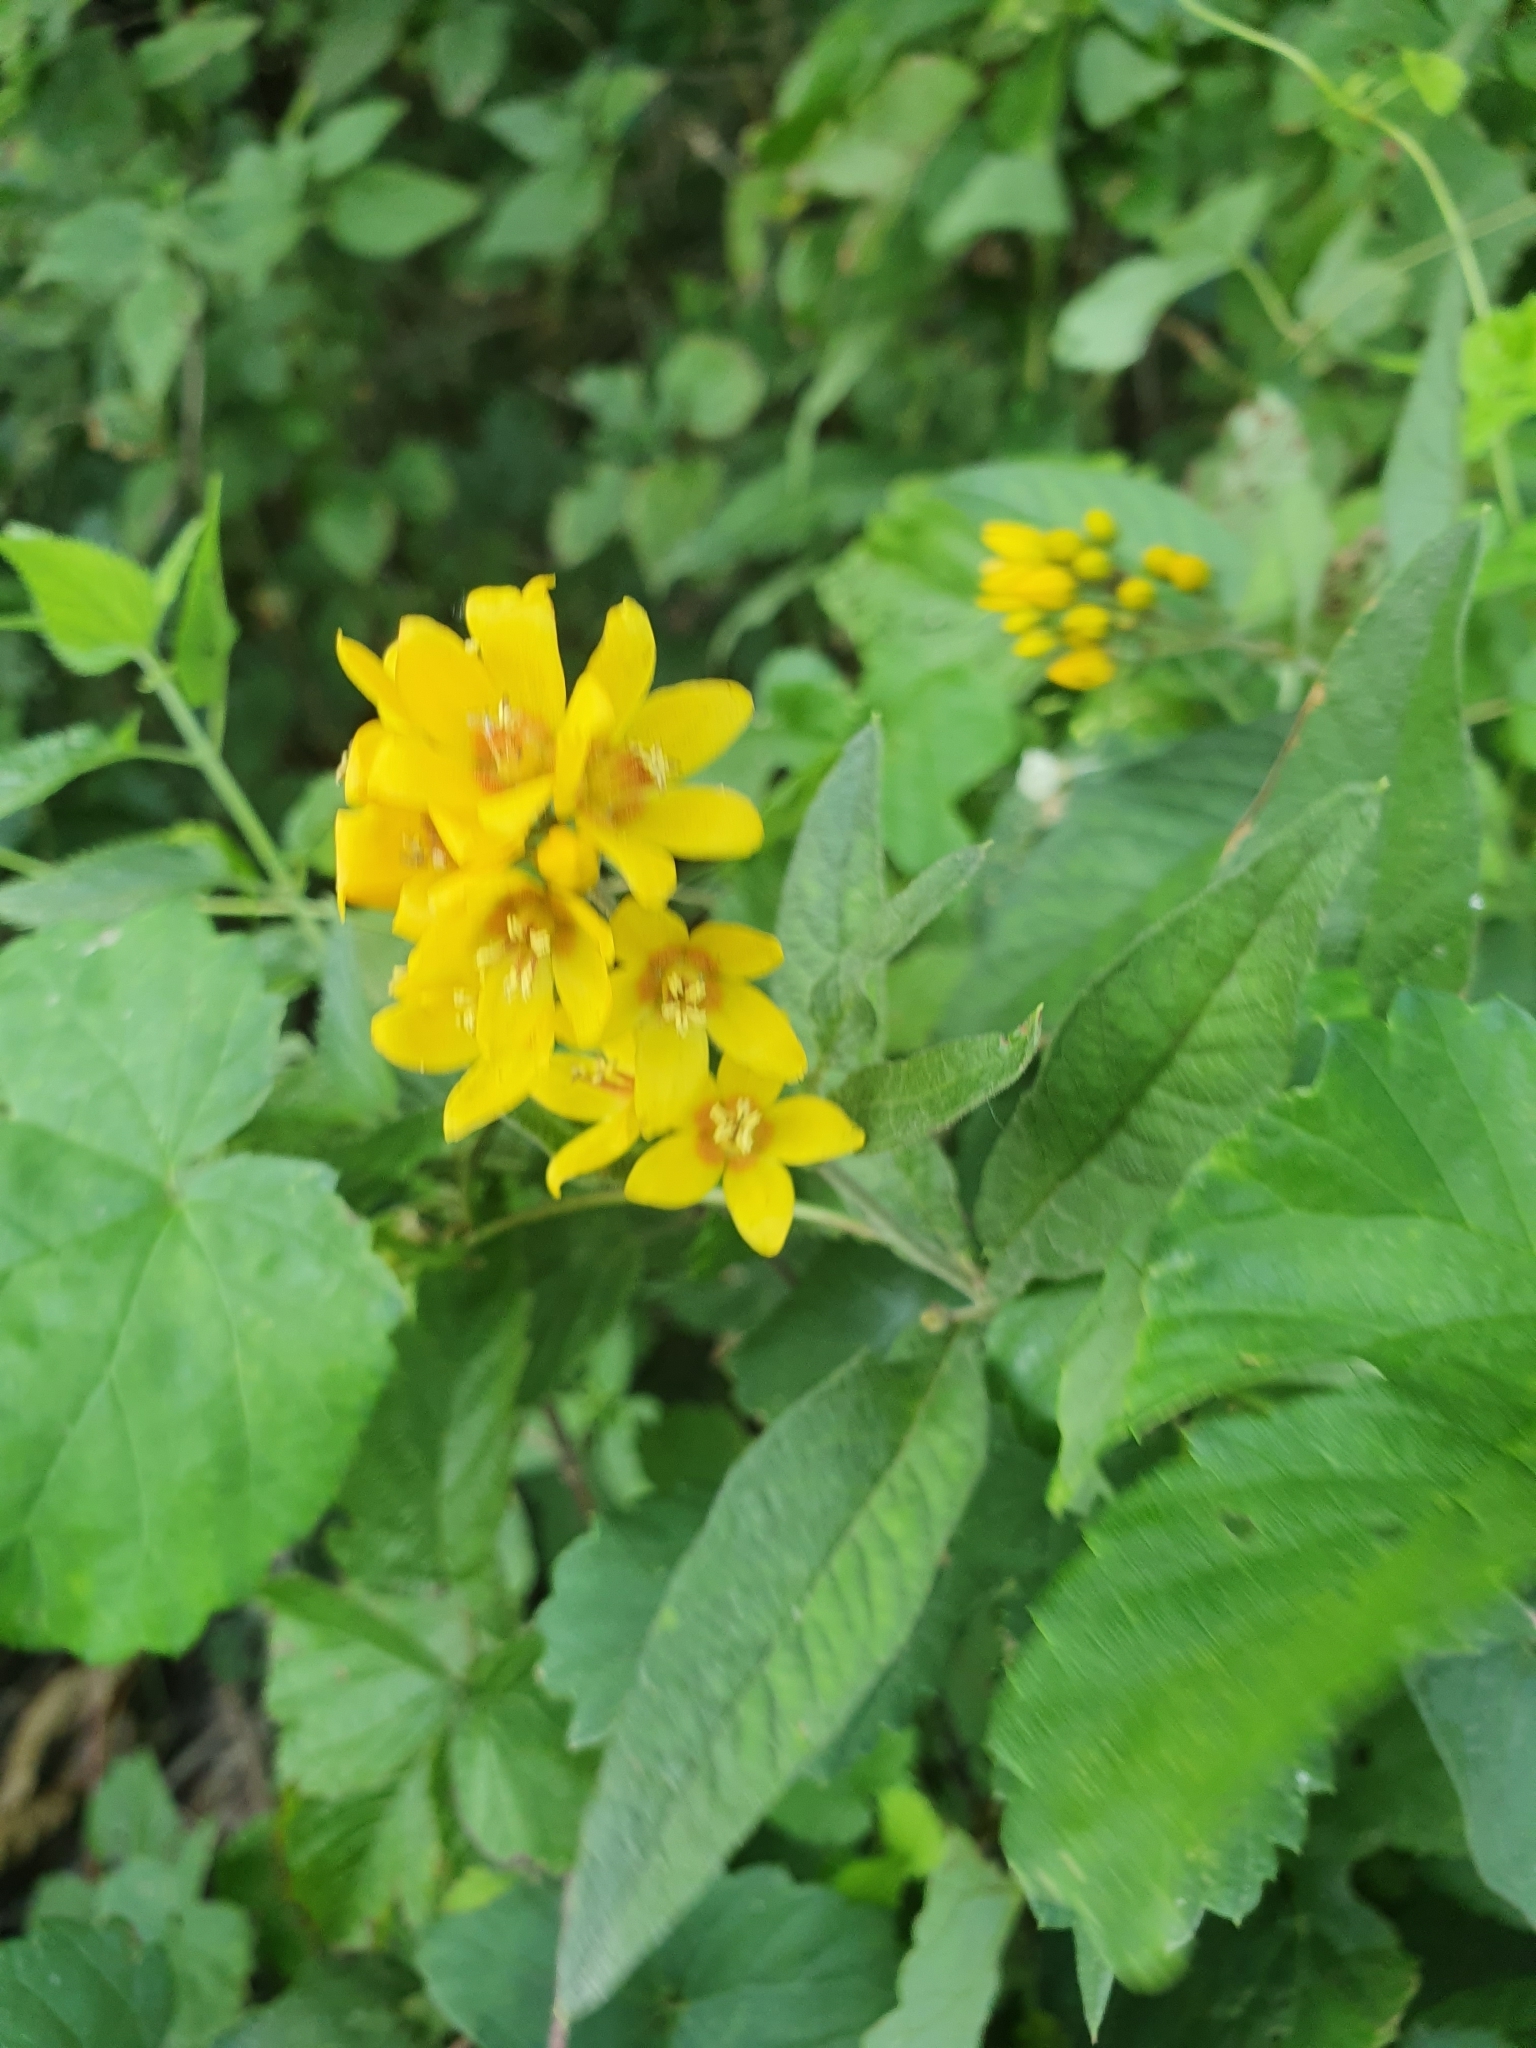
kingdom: Plantae
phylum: Tracheophyta
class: Magnoliopsida
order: Ericales
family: Primulaceae
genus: Lysimachia
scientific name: Lysimachia vulgaris
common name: Yellow loosestrife
